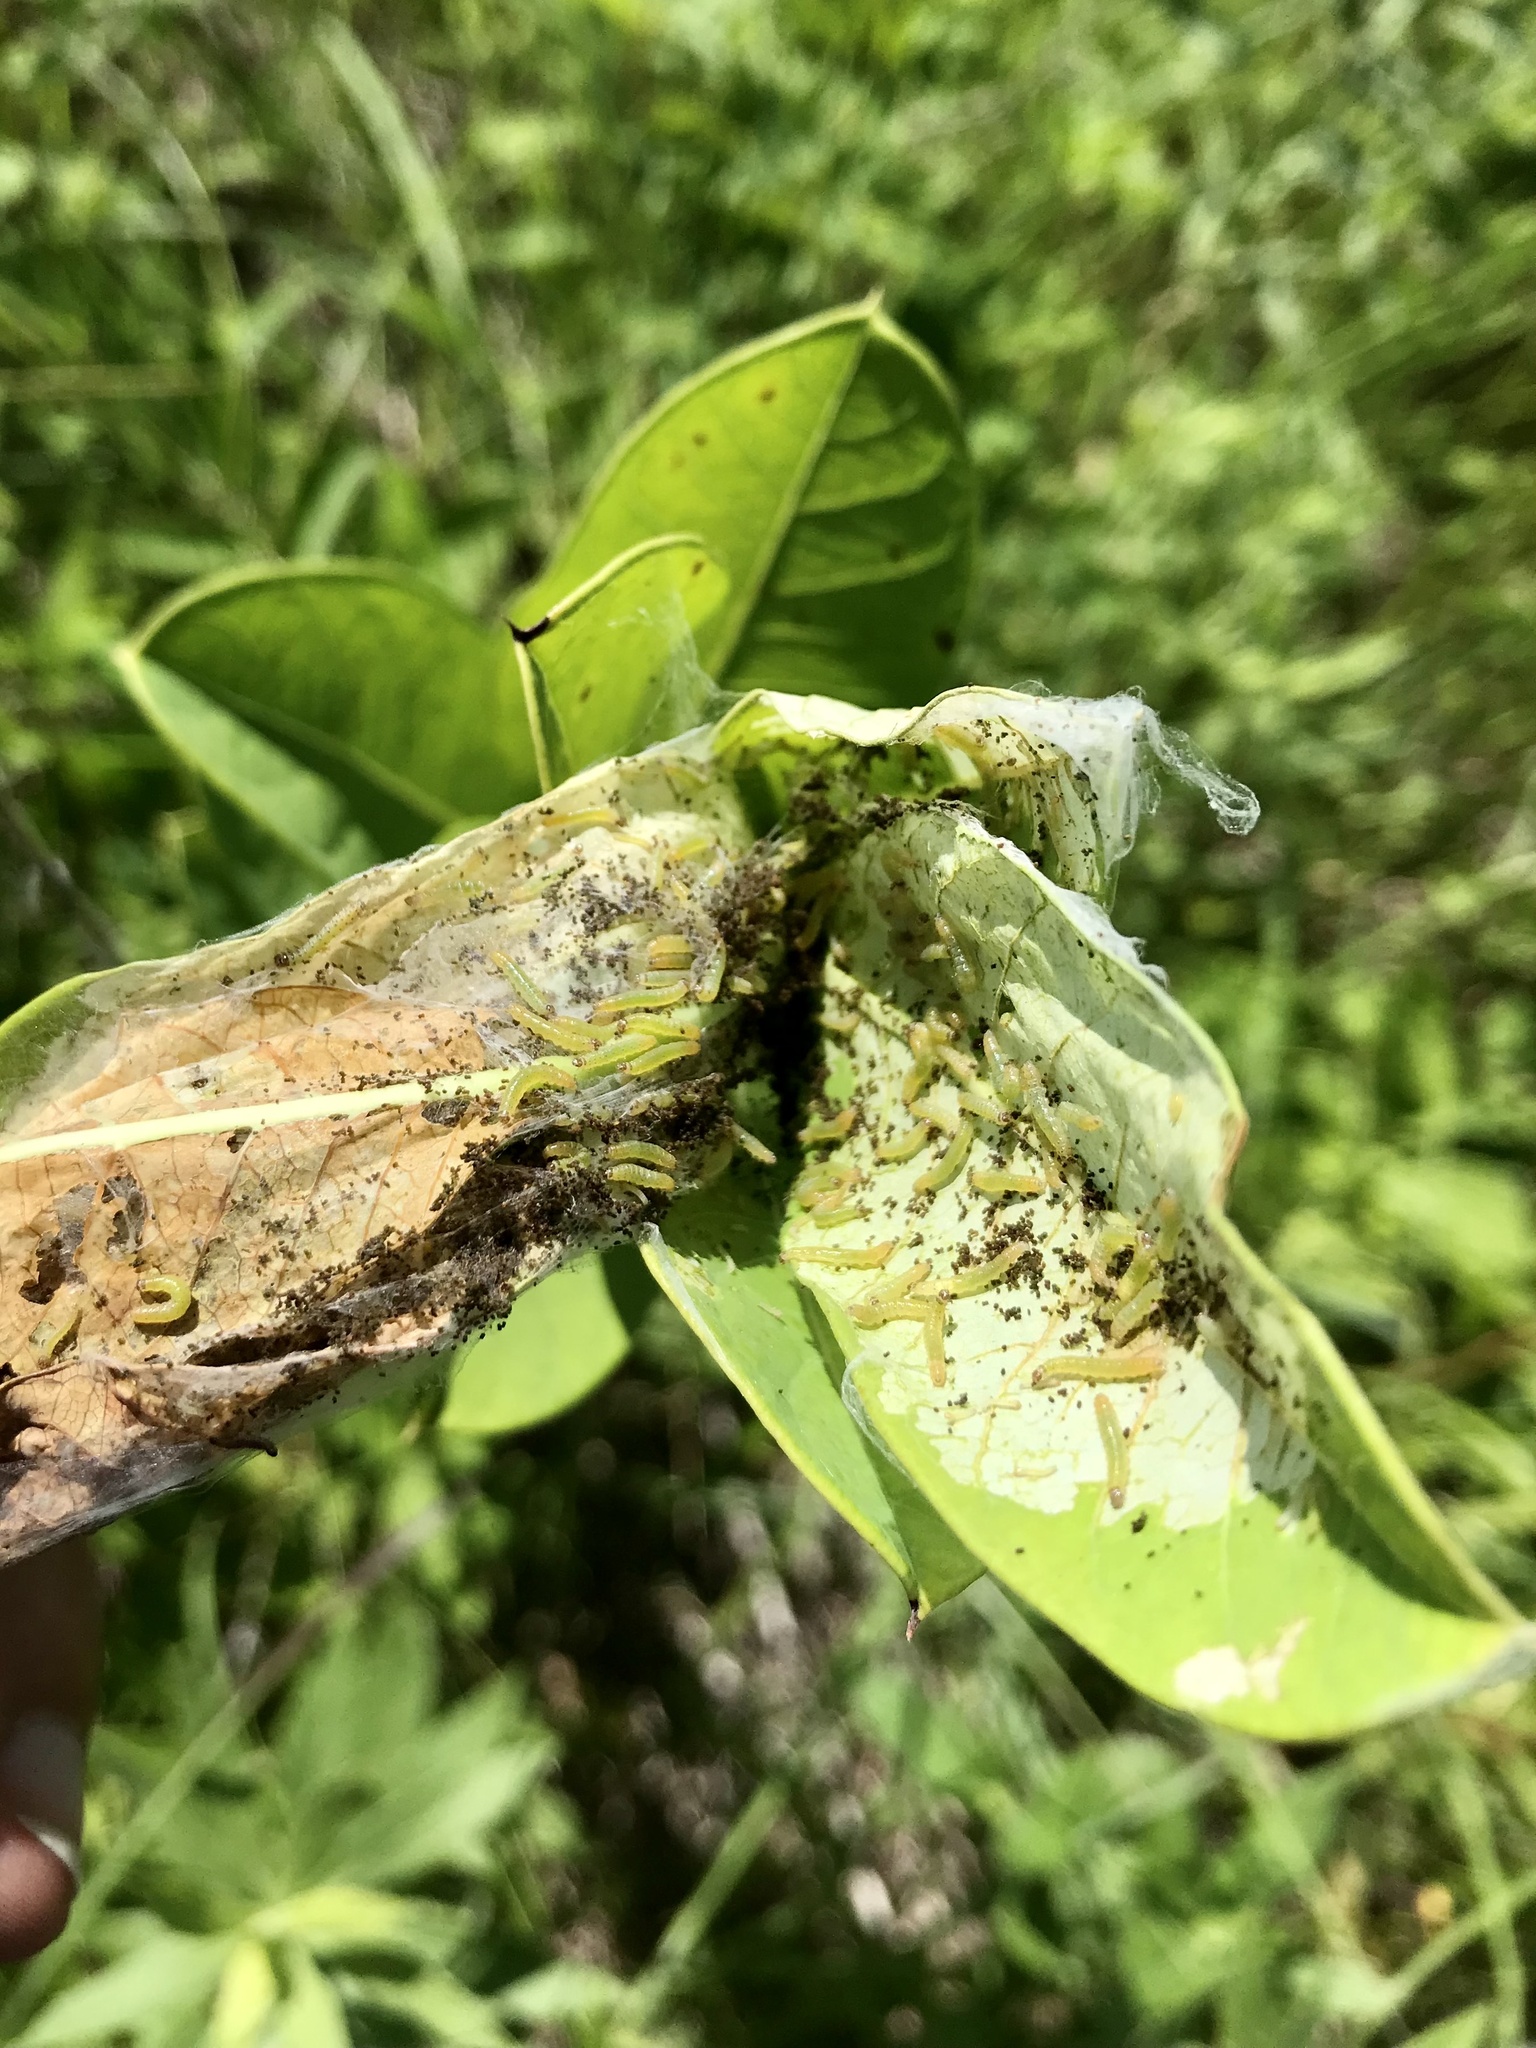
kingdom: Animalia
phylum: Arthropoda
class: Insecta
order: Lepidoptera
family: Crambidae
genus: Saucrobotys
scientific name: Saucrobotys futilalis
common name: Dogbane saucrobotys moth
